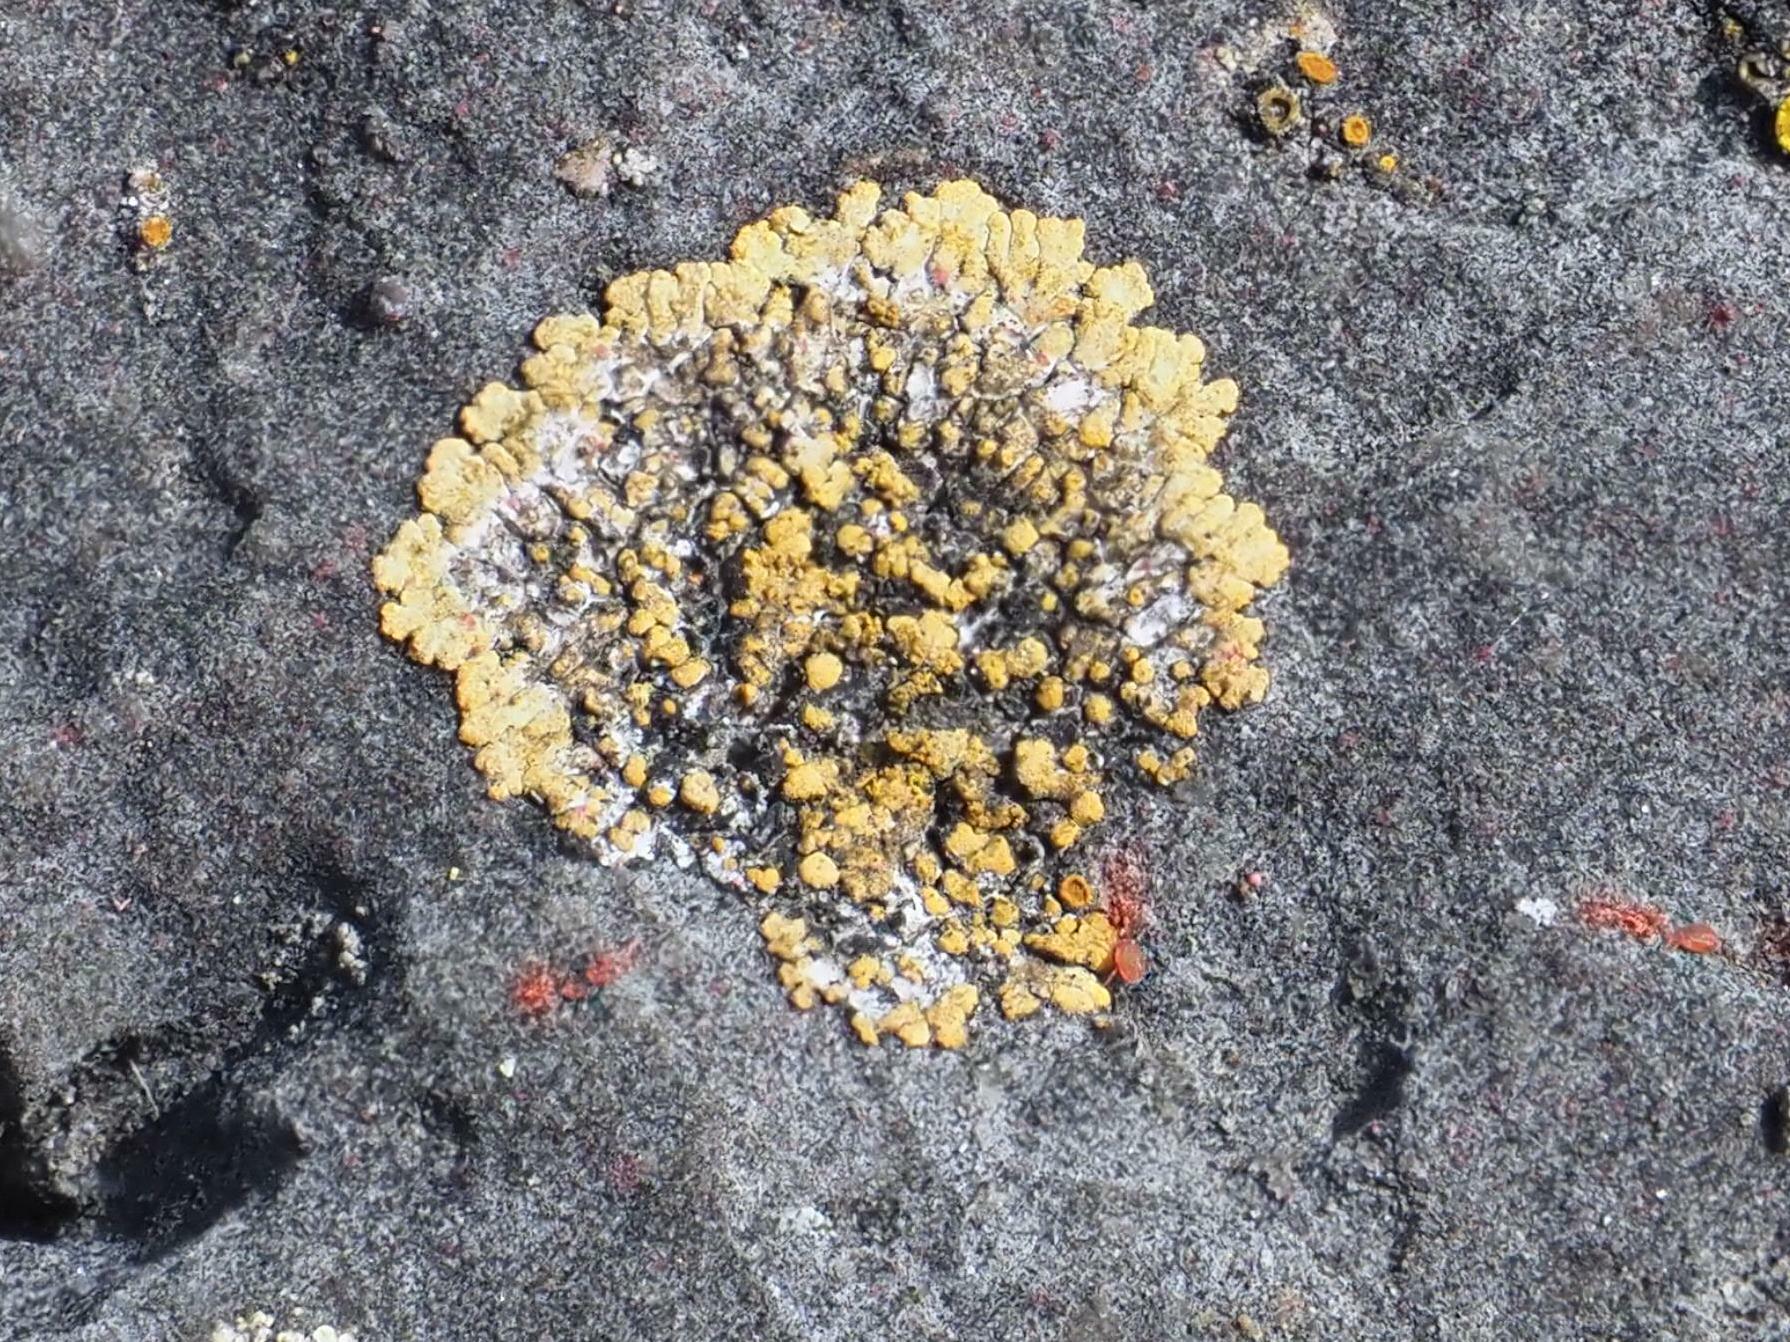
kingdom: Fungi
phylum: Ascomycota
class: Lecanoromycetes
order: Teloschistales
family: Teloschistaceae
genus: Calogaya
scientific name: Calogaya decipiens
